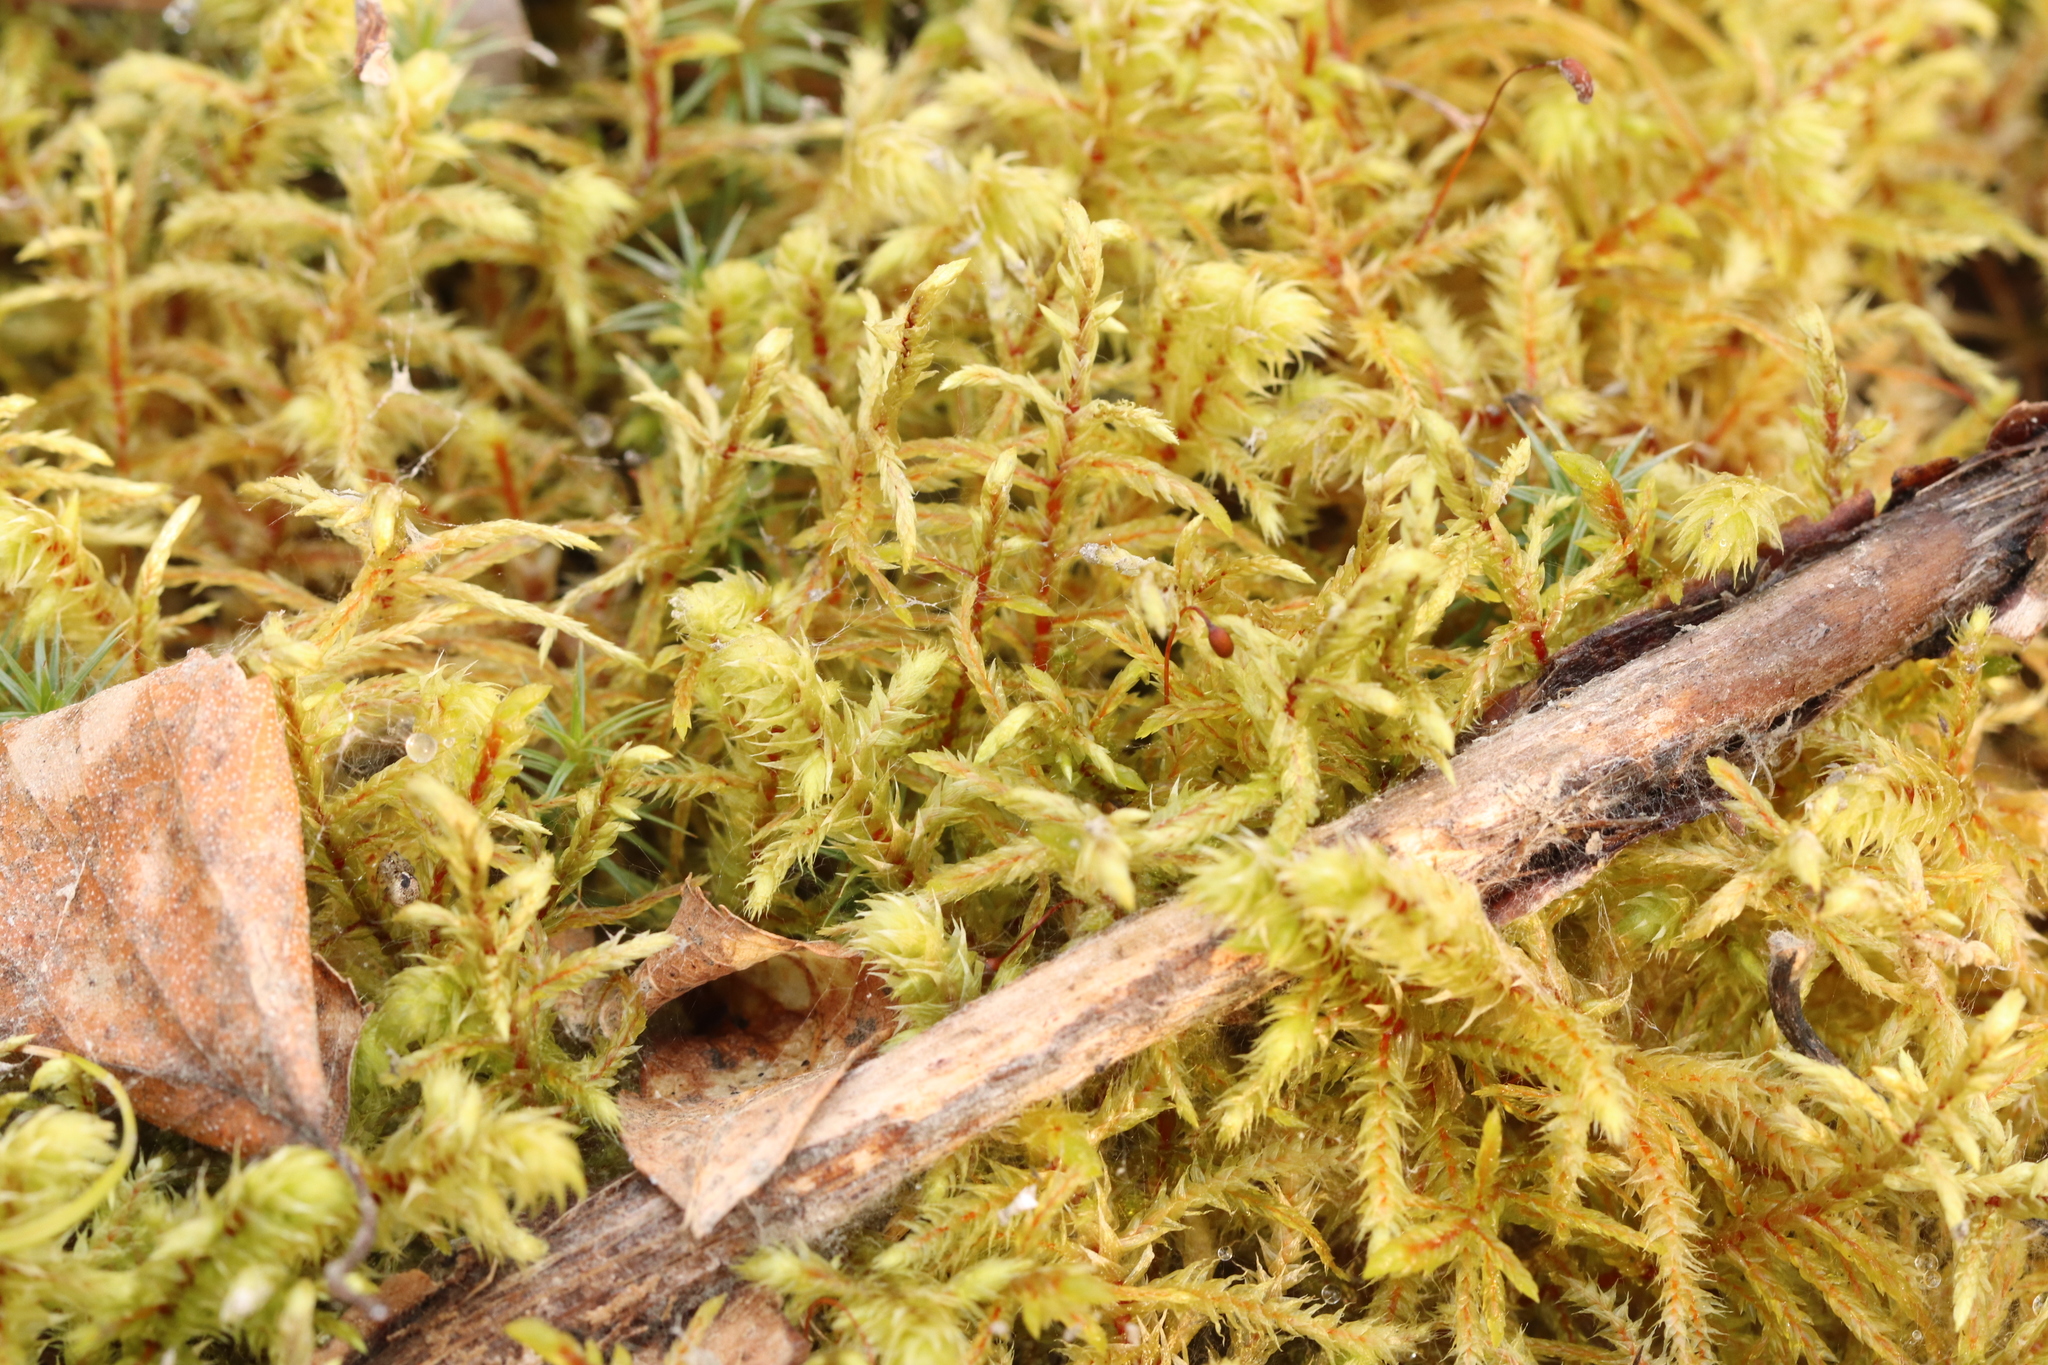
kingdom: Plantae
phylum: Bryophyta
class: Bryopsida
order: Hypnales
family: Hylocomiaceae
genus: Pleurozium
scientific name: Pleurozium schreberi
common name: Red-stemmed feather moss
